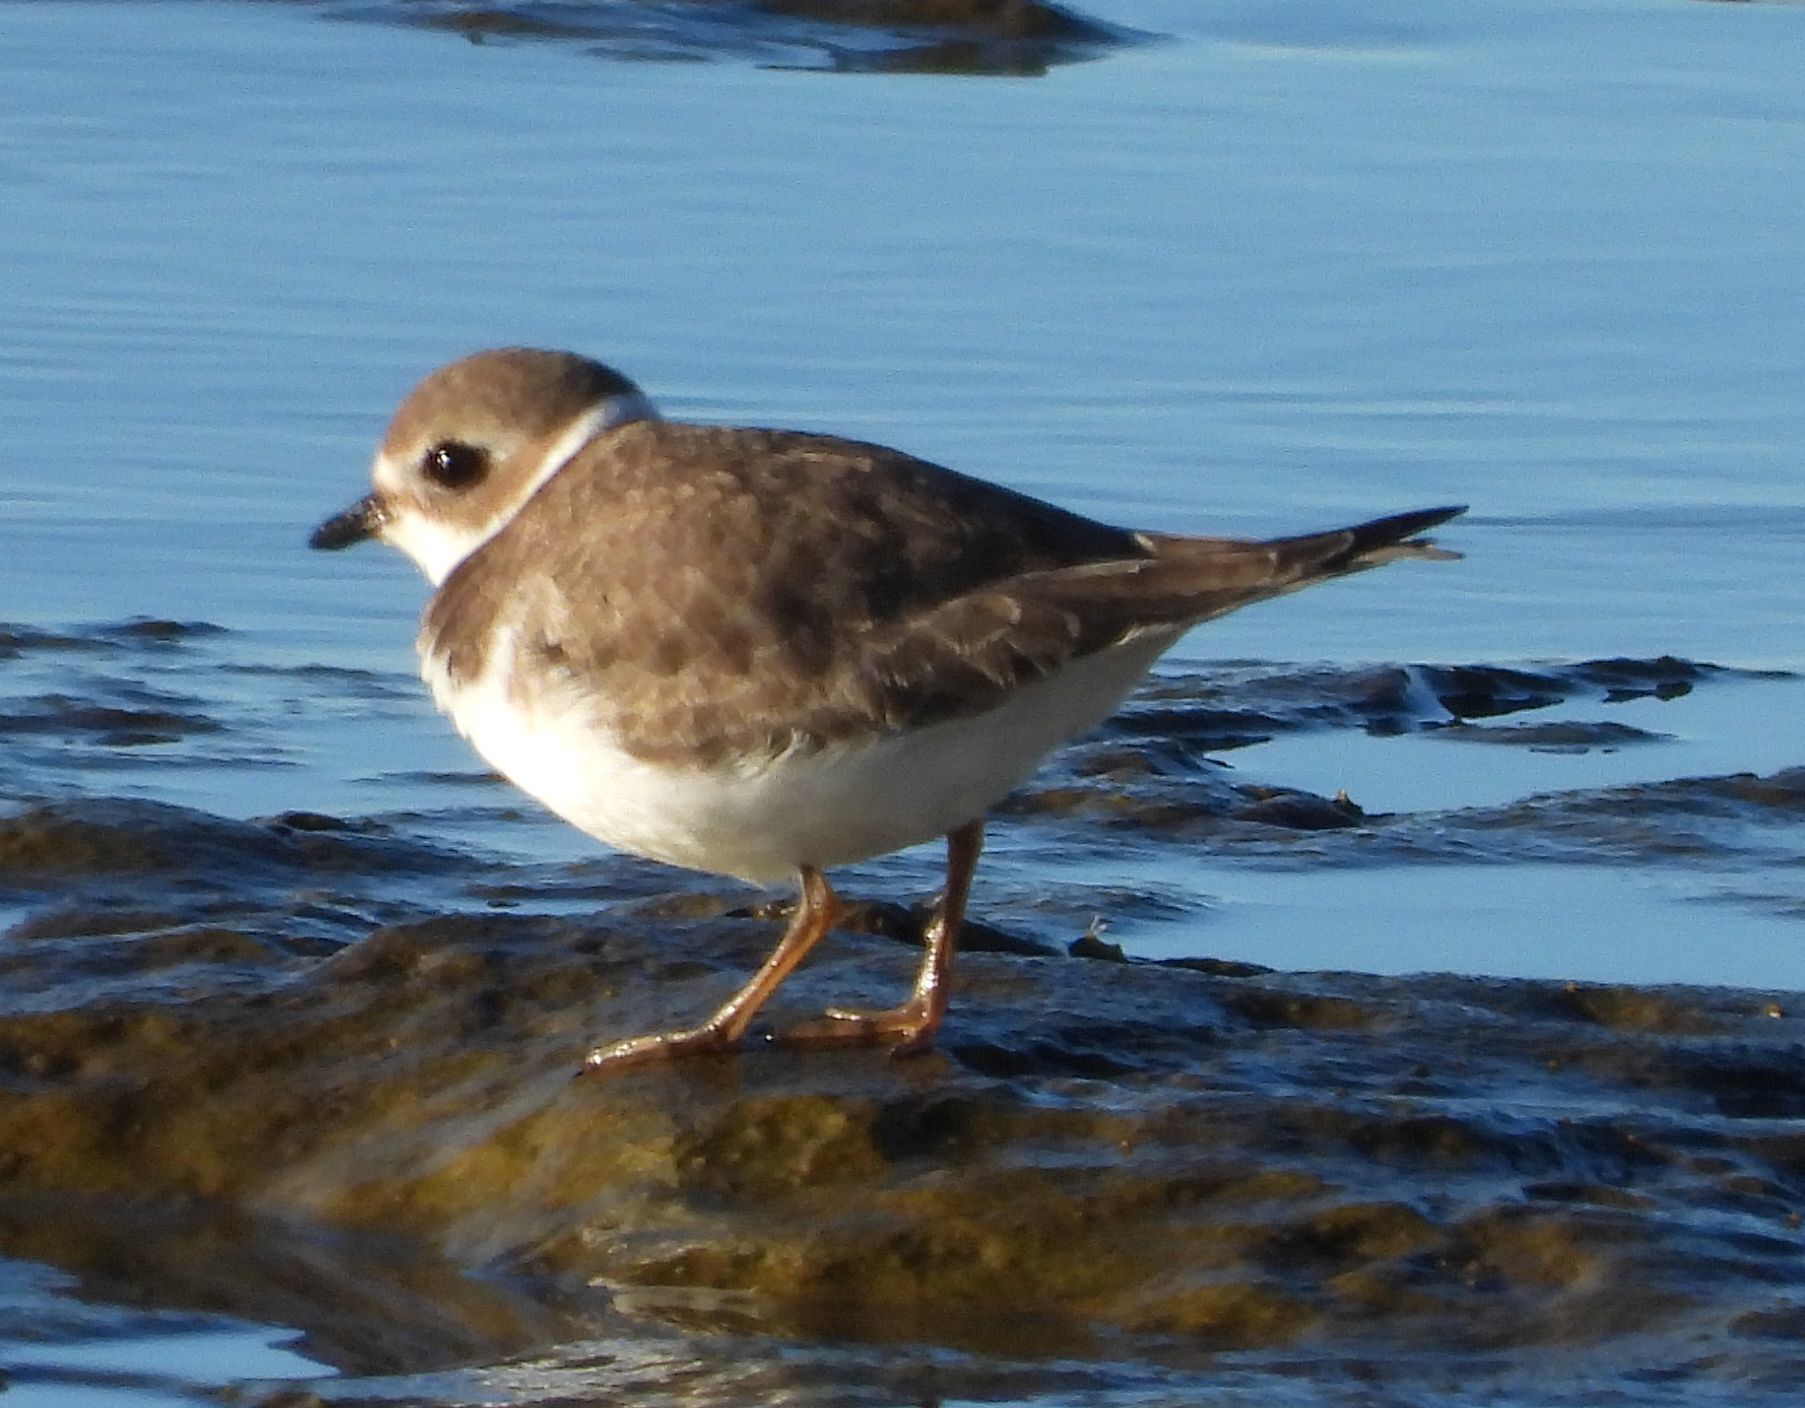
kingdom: Animalia
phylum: Chordata
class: Aves
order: Charadriiformes
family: Charadriidae
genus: Charadrius
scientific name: Charadrius semipalmatus
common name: Semipalmated plover
